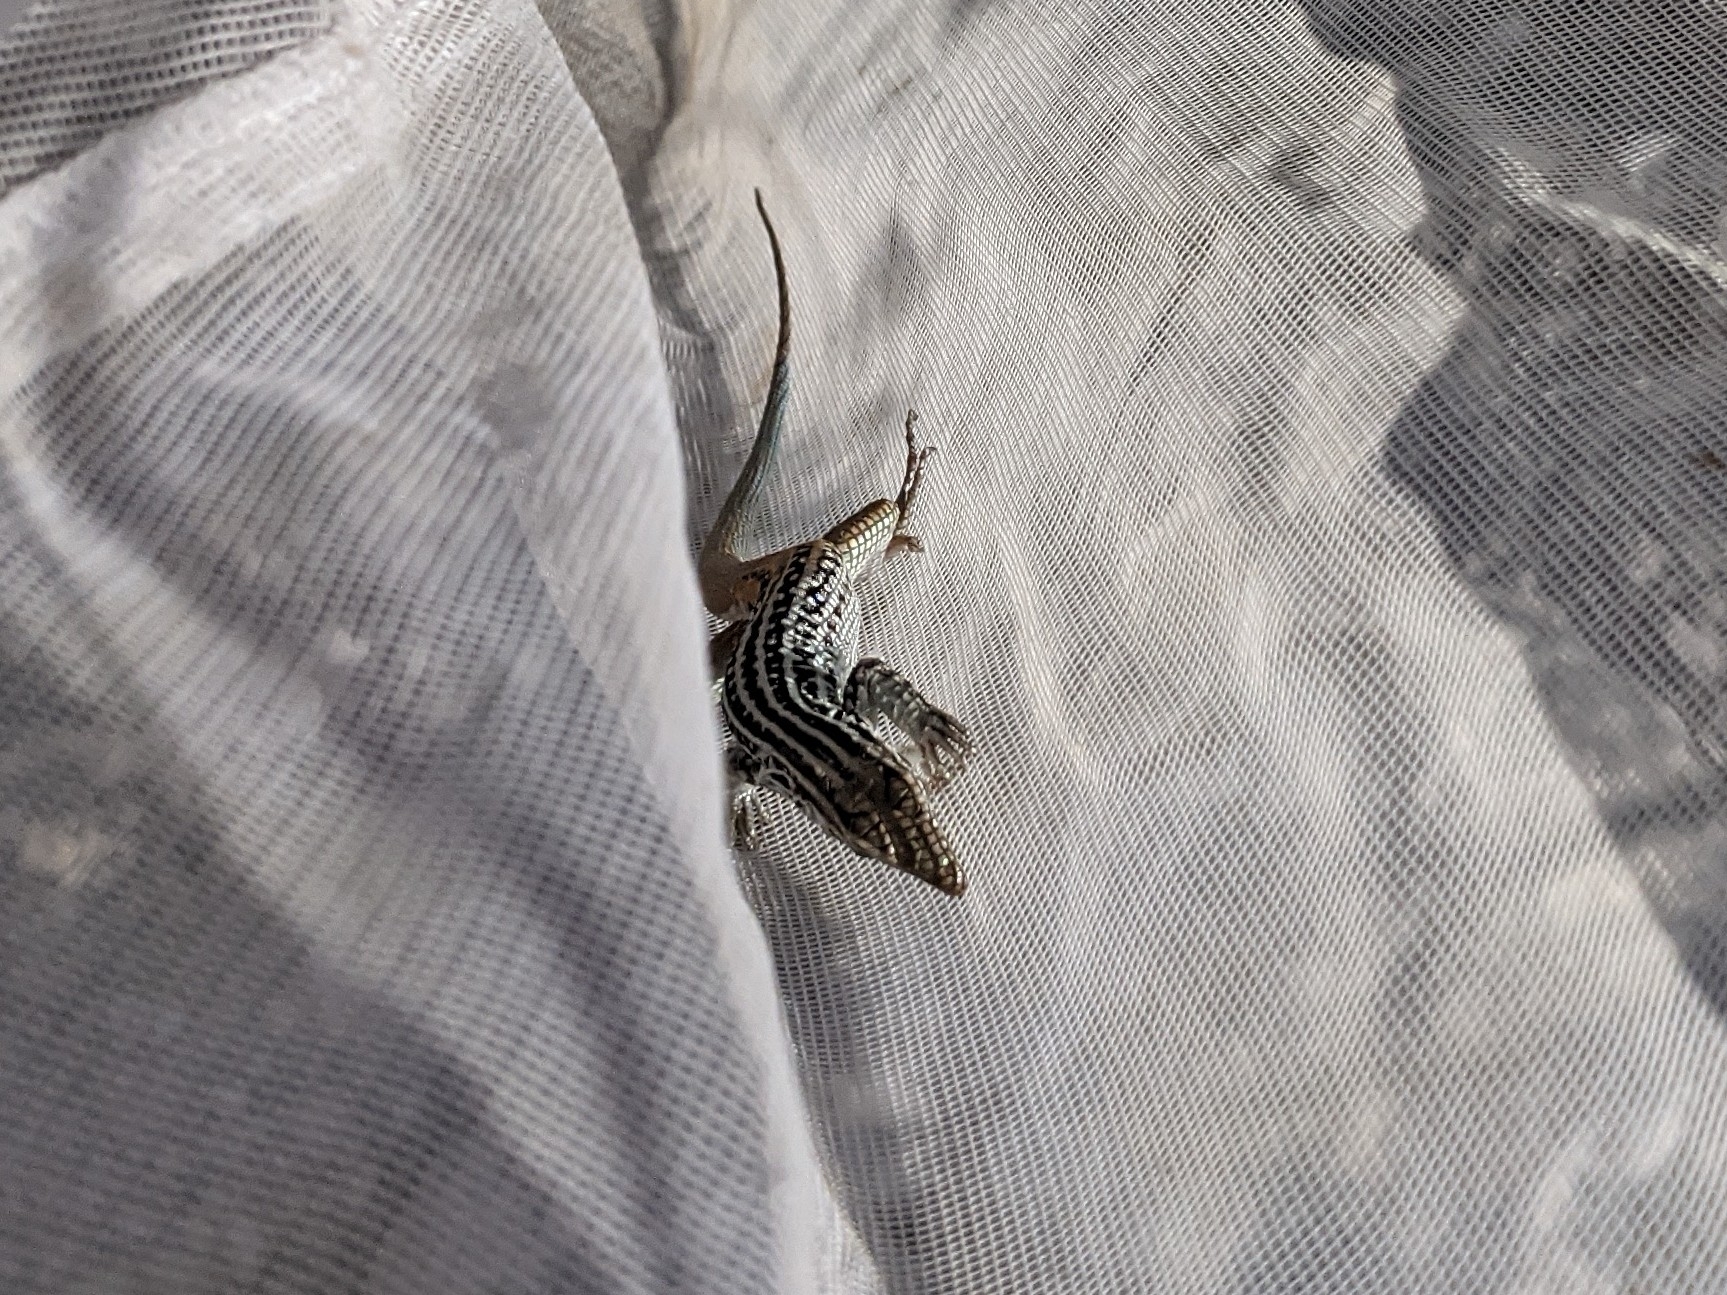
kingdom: Animalia
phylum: Chordata
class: Squamata
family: Teiidae
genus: Aspidoscelis
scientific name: Aspidoscelis scalaris
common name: Rusty-rumped whiptail
